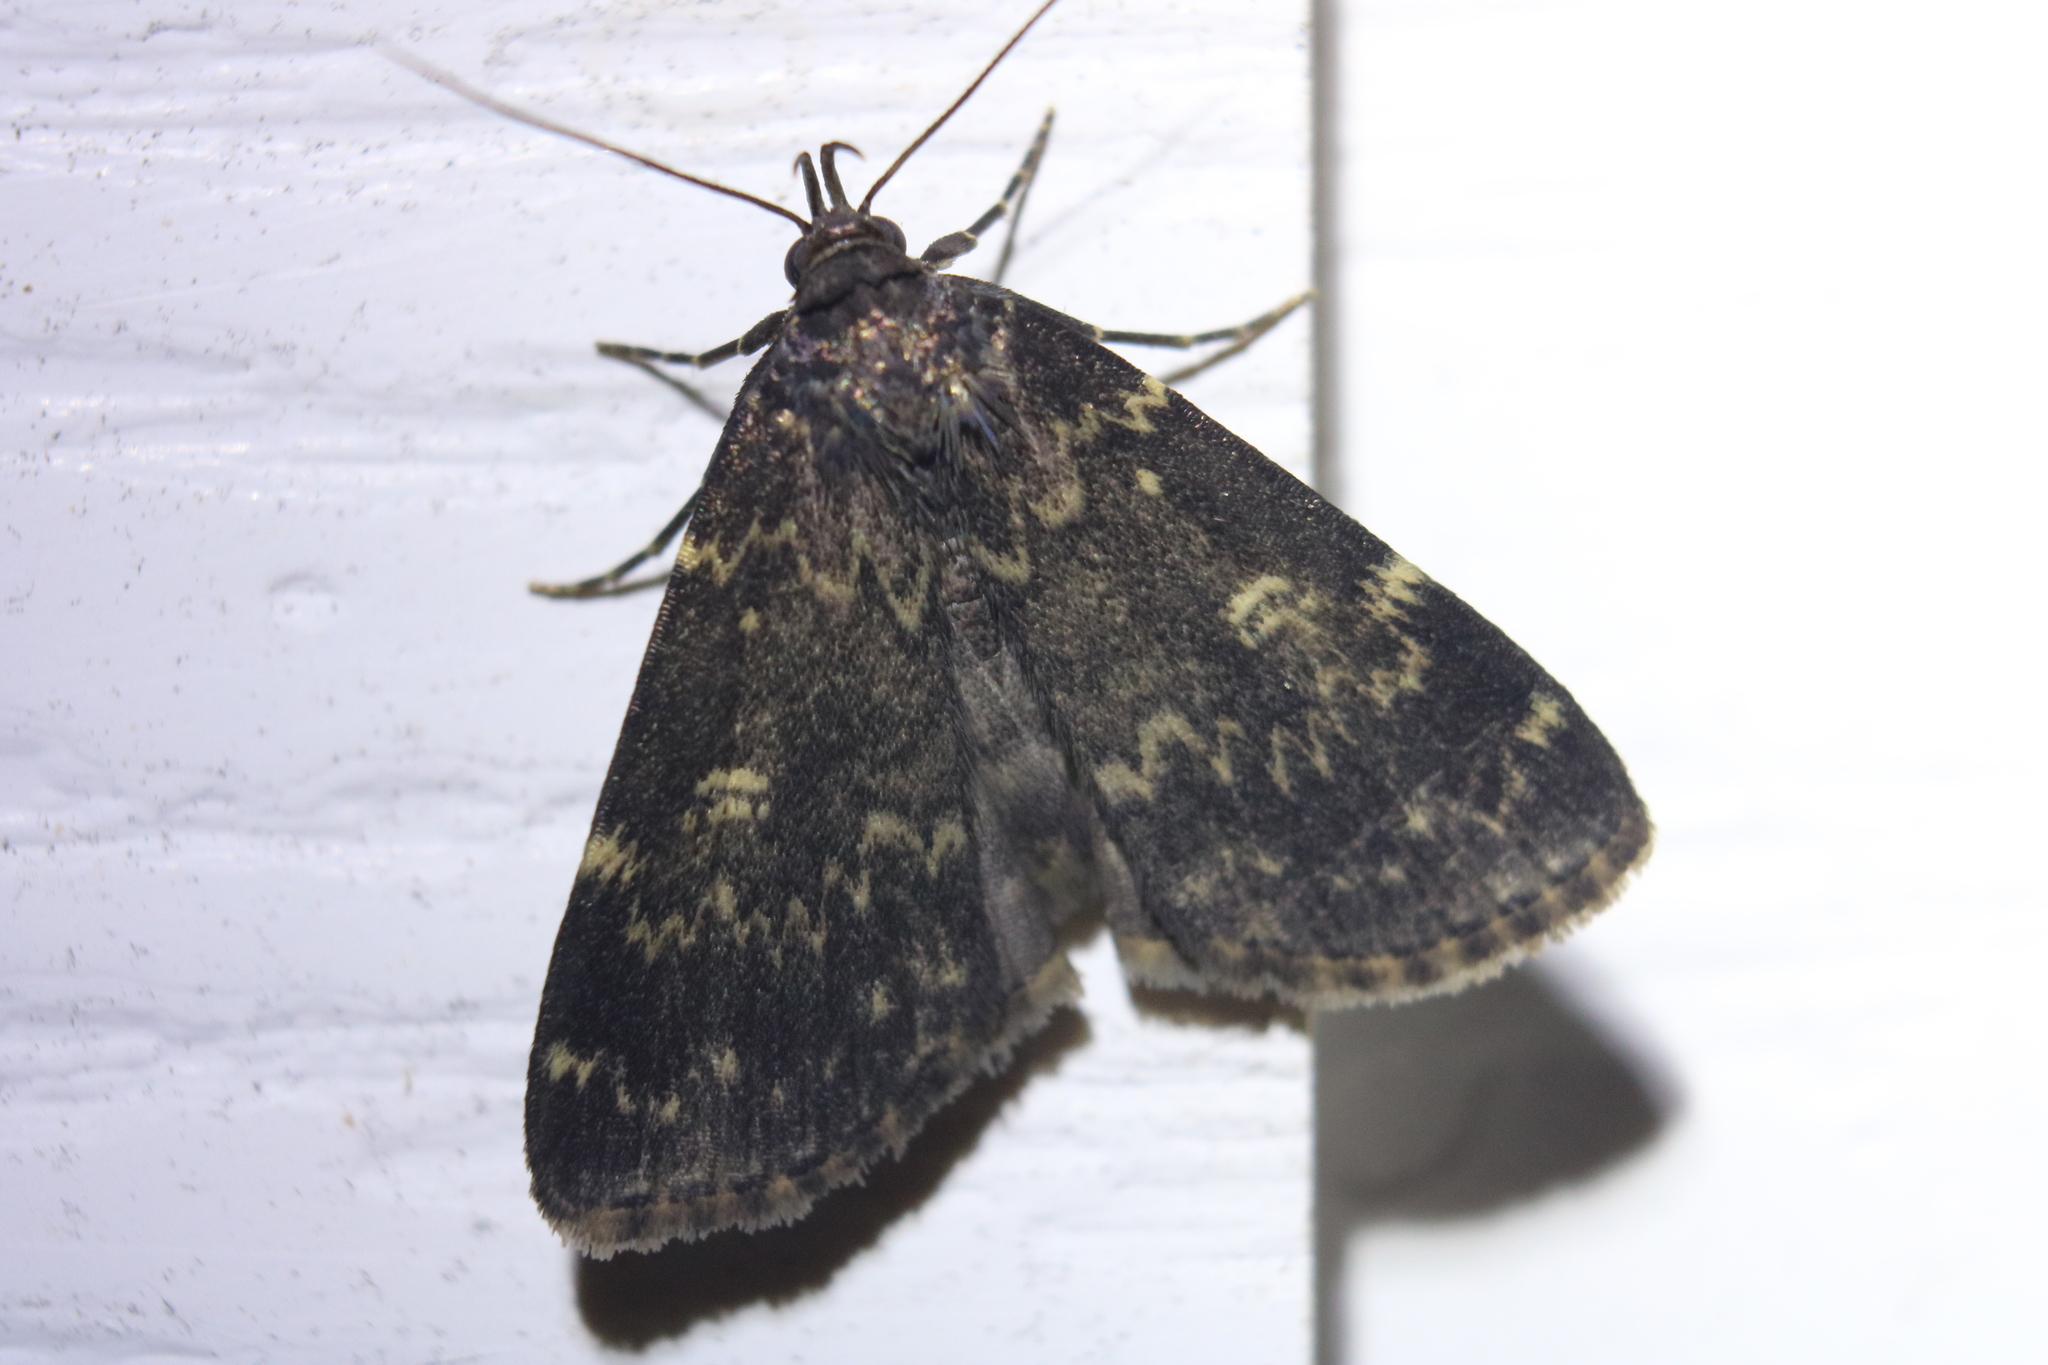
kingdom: Animalia
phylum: Arthropoda
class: Insecta
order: Lepidoptera
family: Erebidae
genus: Idia
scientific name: Idia lubricalis
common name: Twin-striped tabby
